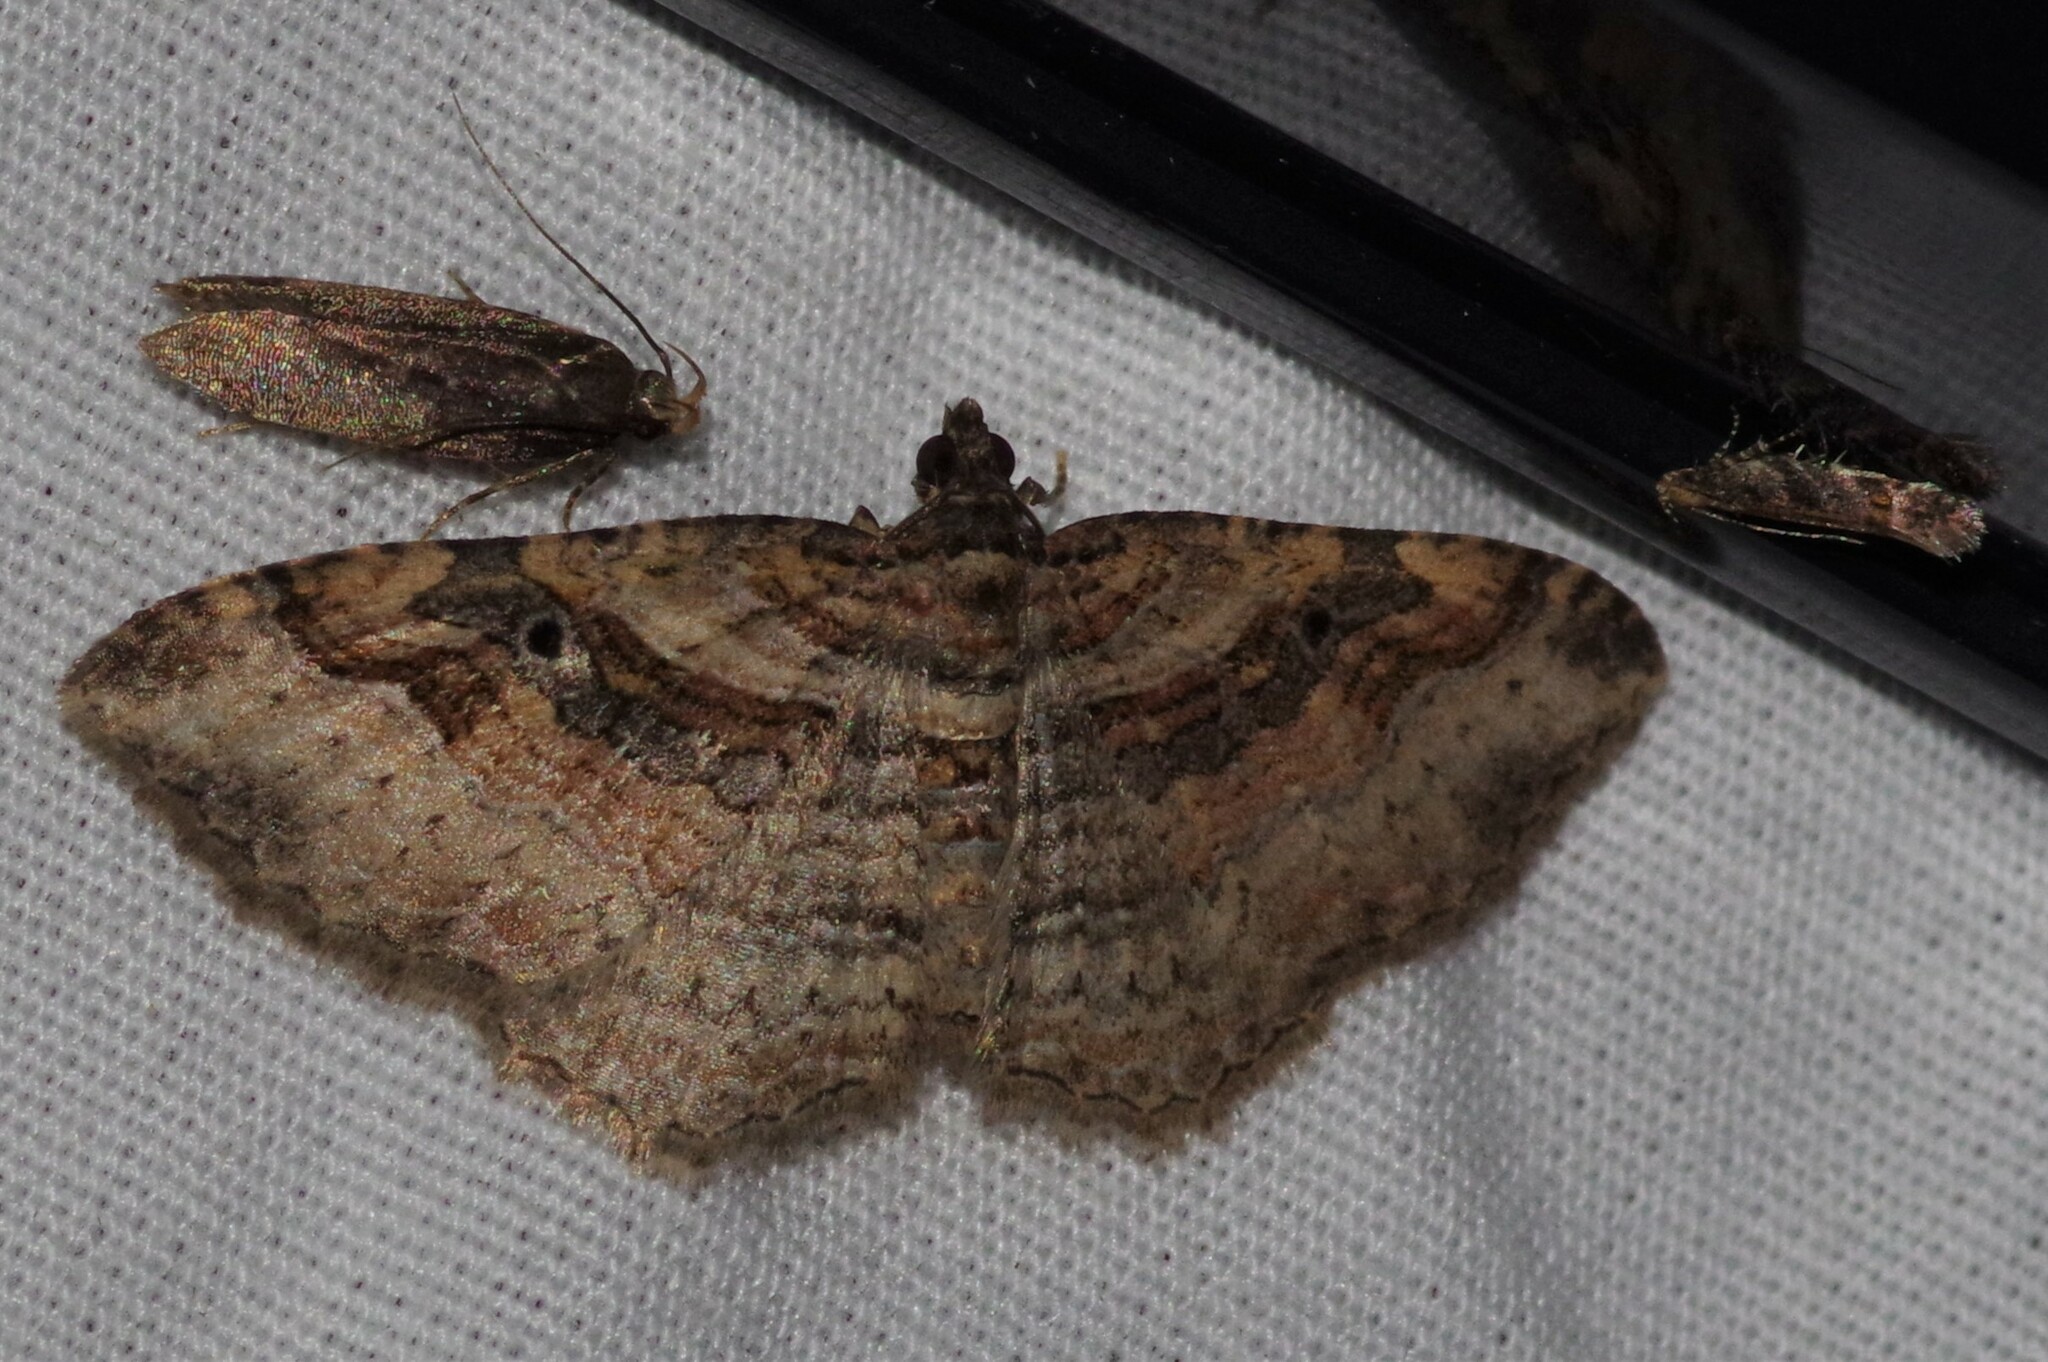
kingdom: Animalia
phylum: Arthropoda
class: Insecta
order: Lepidoptera
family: Geometridae
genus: Costaconvexa
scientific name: Costaconvexa centrostrigaria
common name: Bent-line carpet
